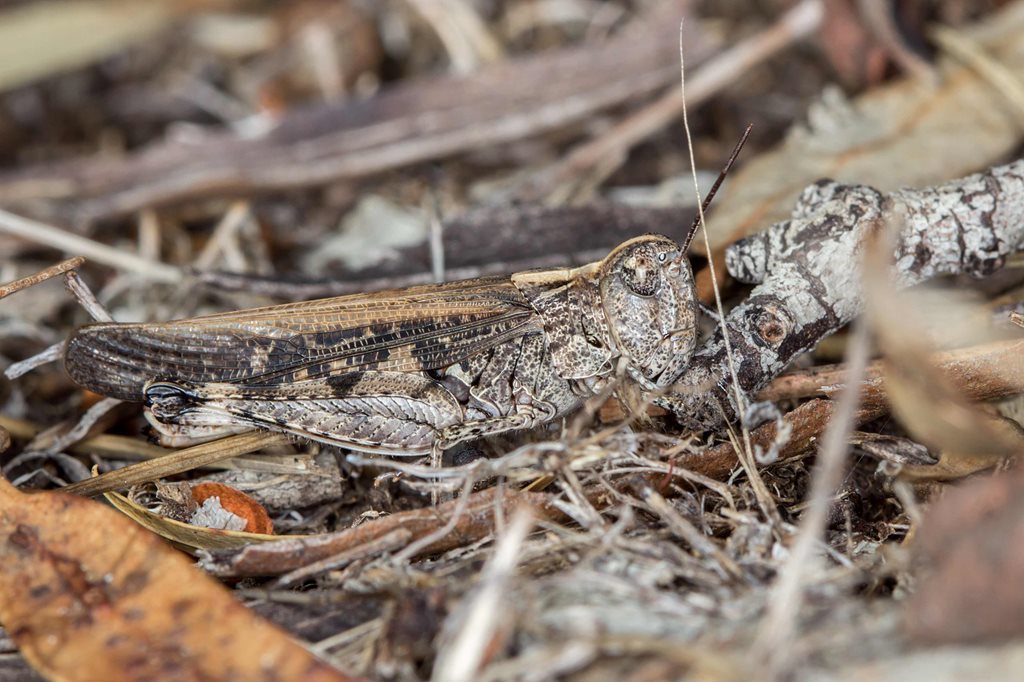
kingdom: Animalia
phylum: Arthropoda
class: Insecta
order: Orthoptera
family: Acrididae
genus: Heteropternis
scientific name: Heteropternis obscurella
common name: Long-legged bandwing
